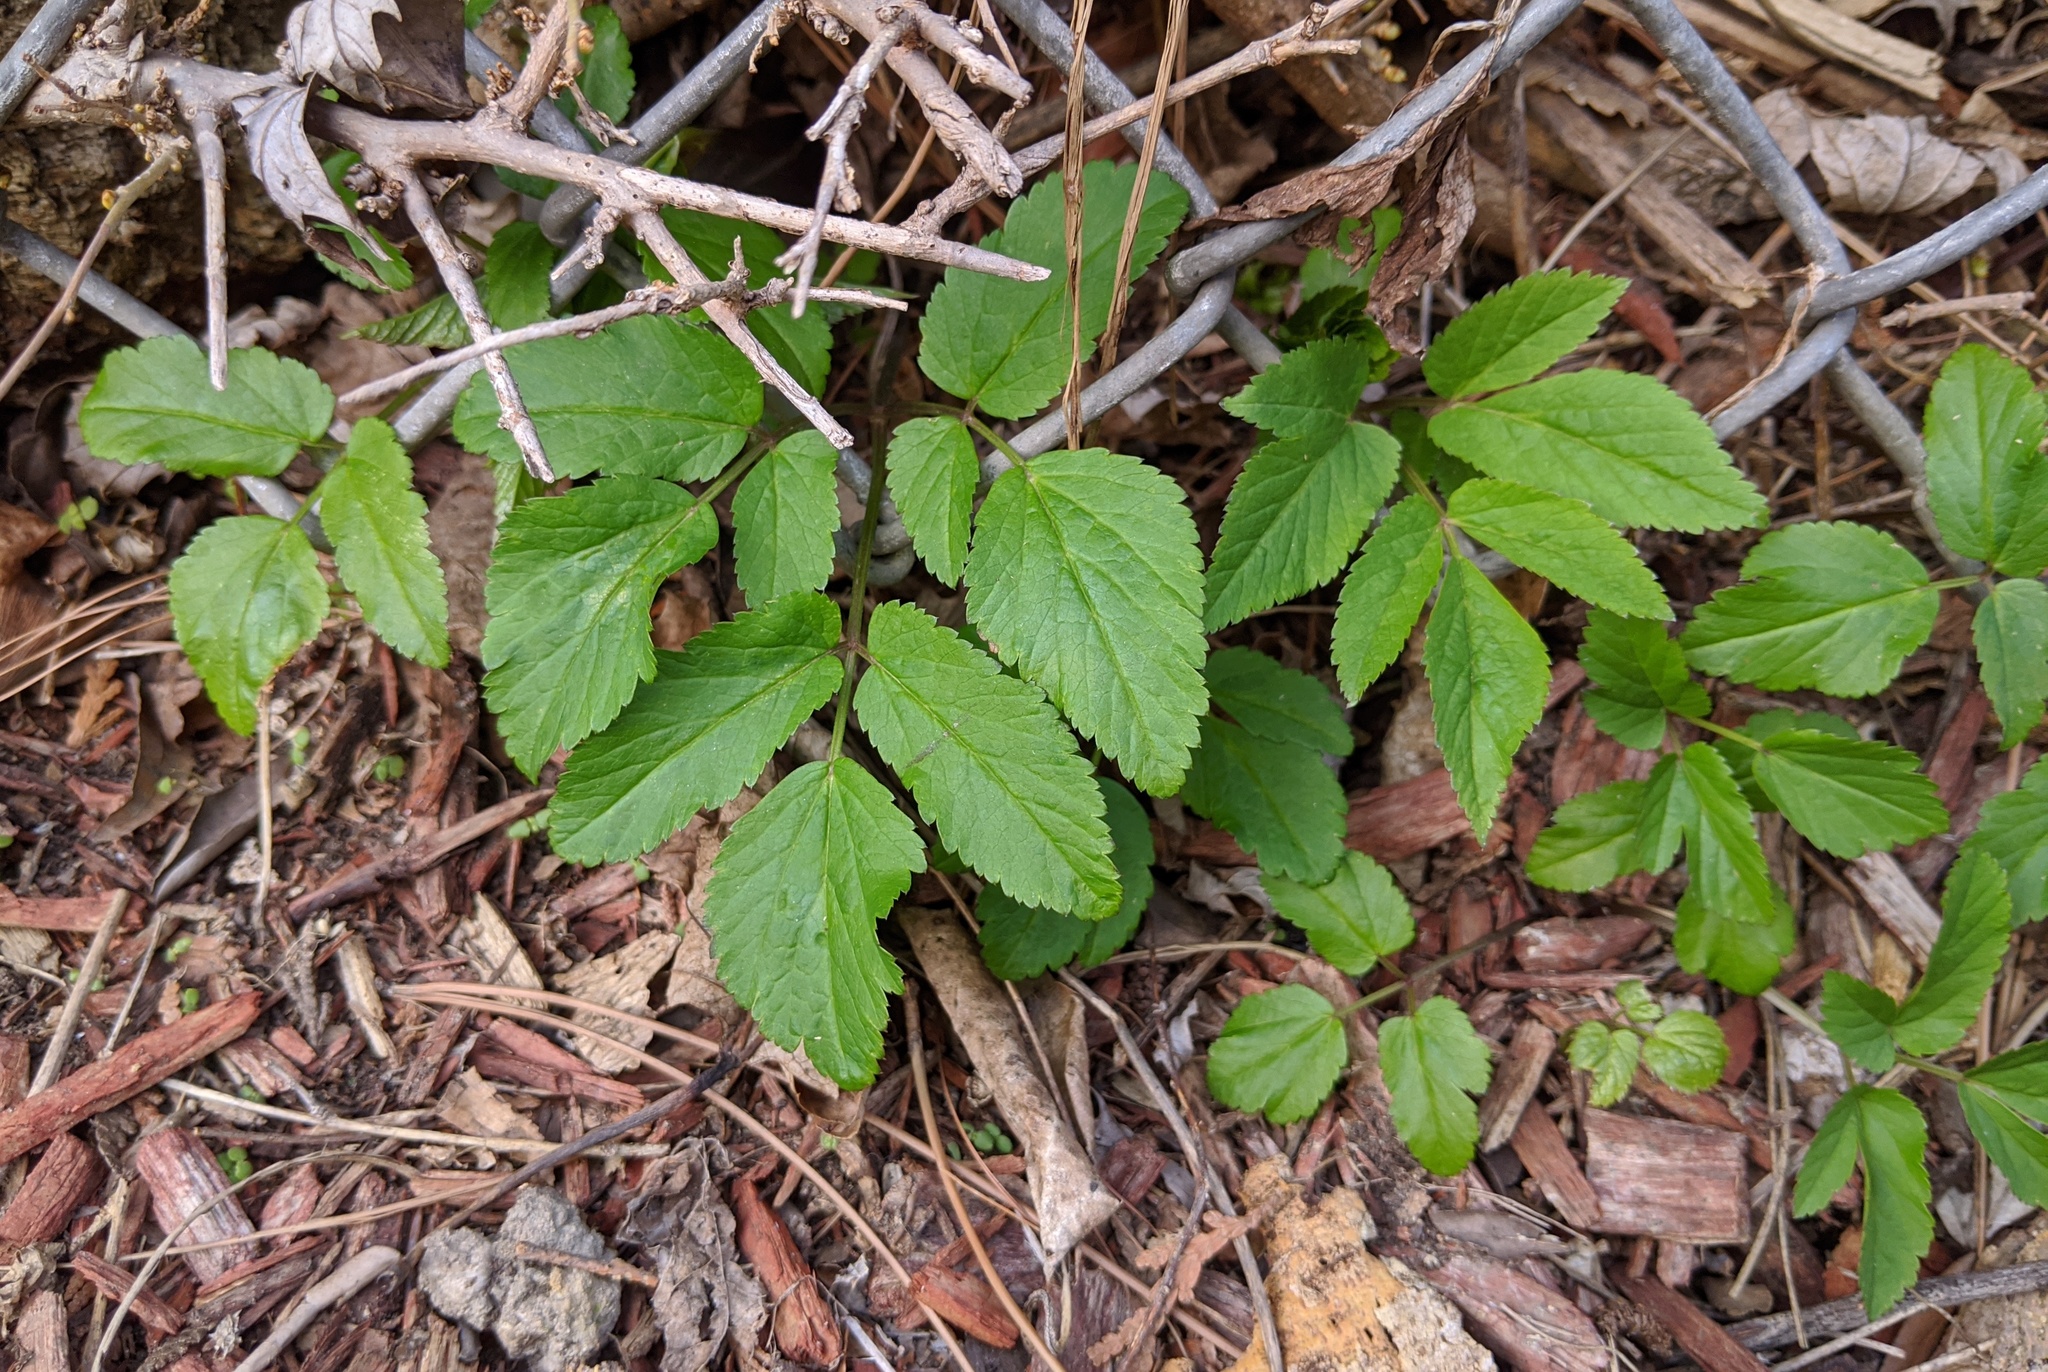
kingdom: Plantae
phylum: Tracheophyta
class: Magnoliopsida
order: Apiales
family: Apiaceae
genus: Aegopodium
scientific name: Aegopodium podagraria
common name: Ground-elder
